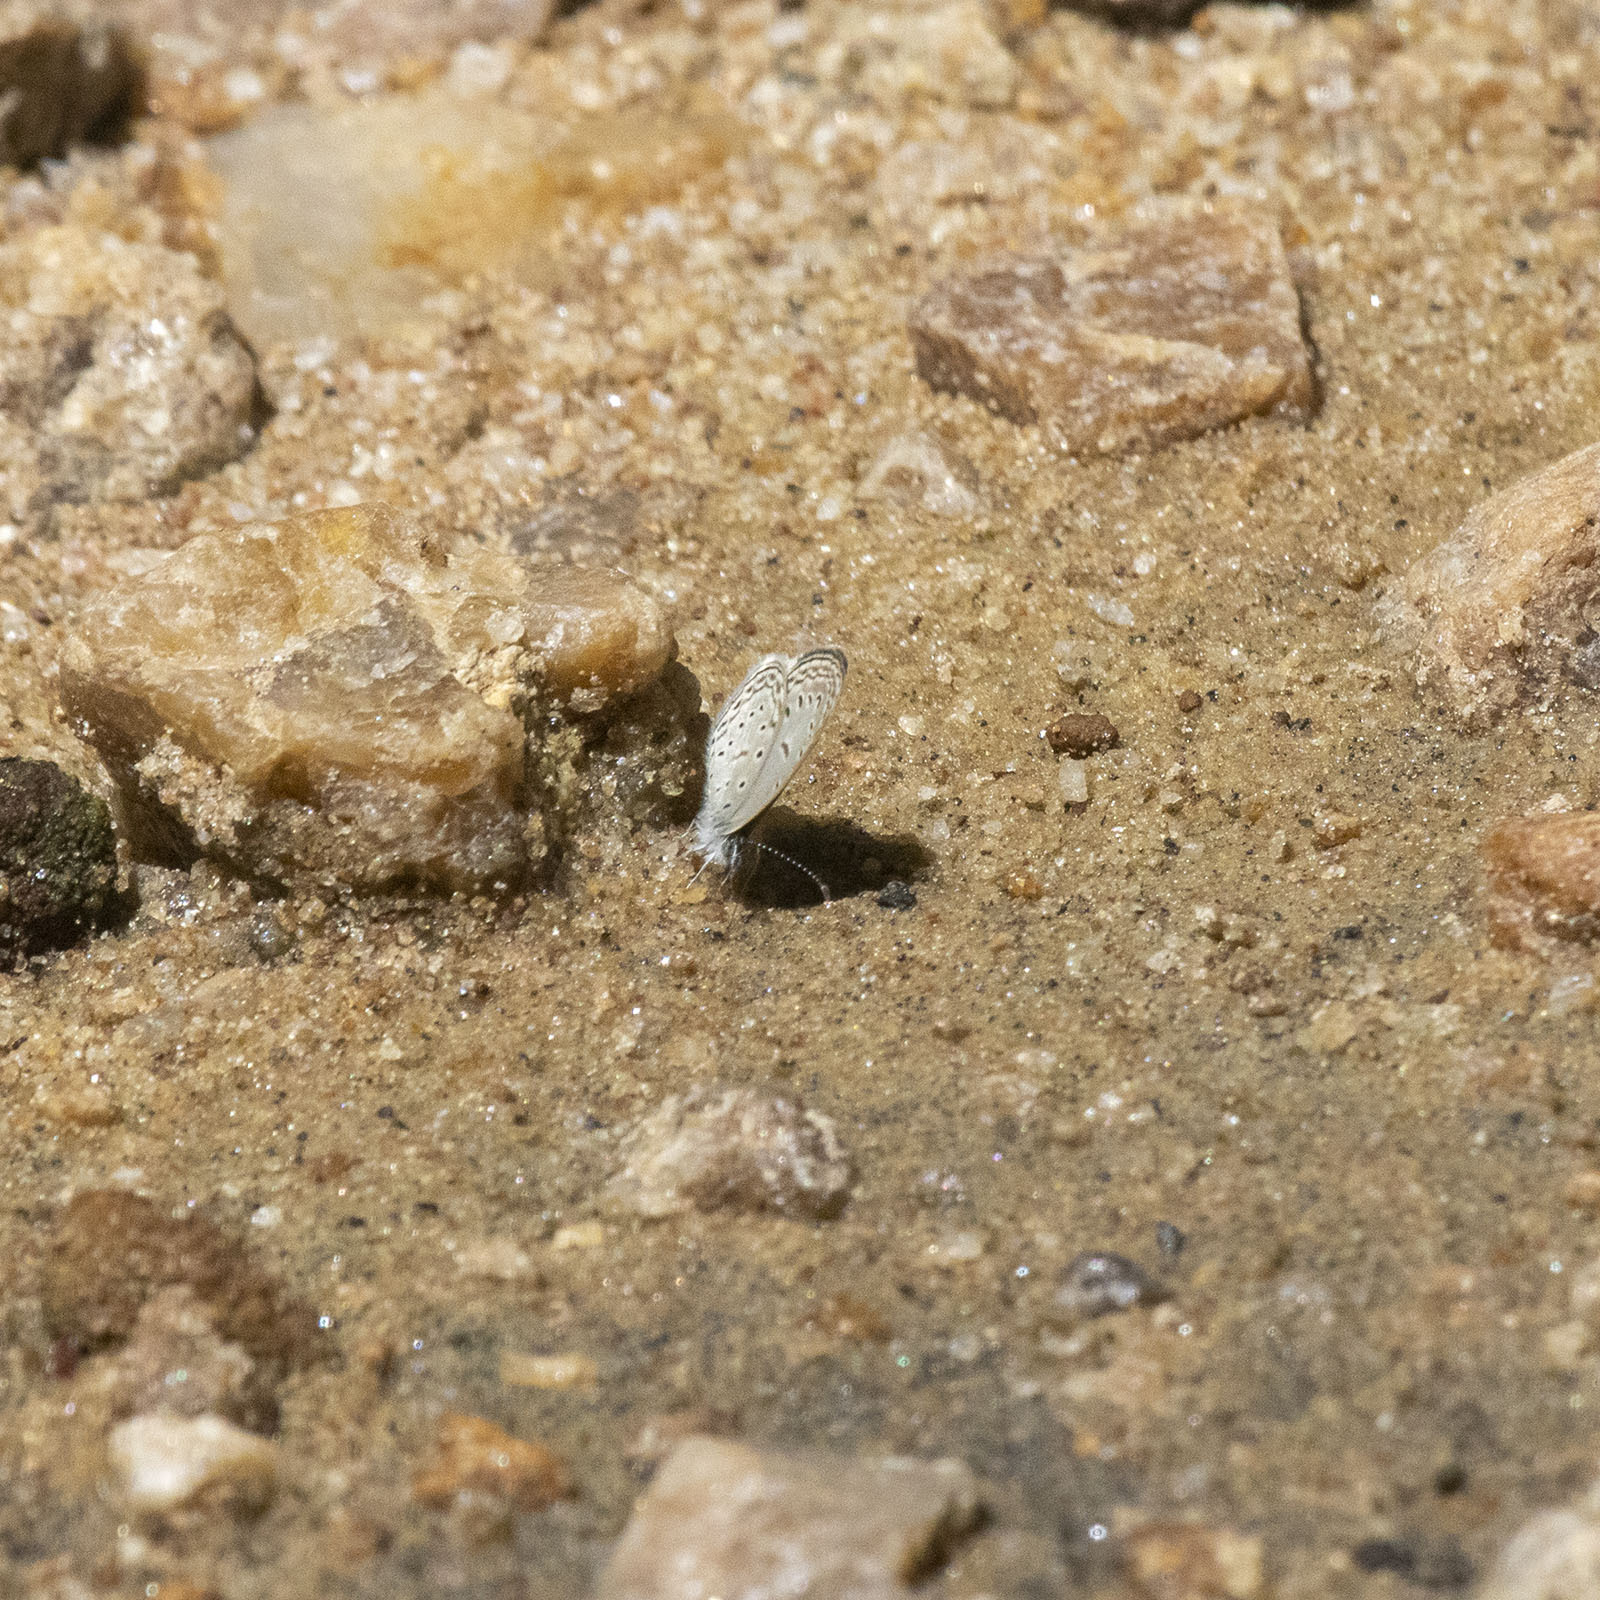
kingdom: Animalia
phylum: Arthropoda
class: Insecta
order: Lepidoptera
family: Lycaenidae
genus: Zizula
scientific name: Zizula hylax
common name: Gaika blue
